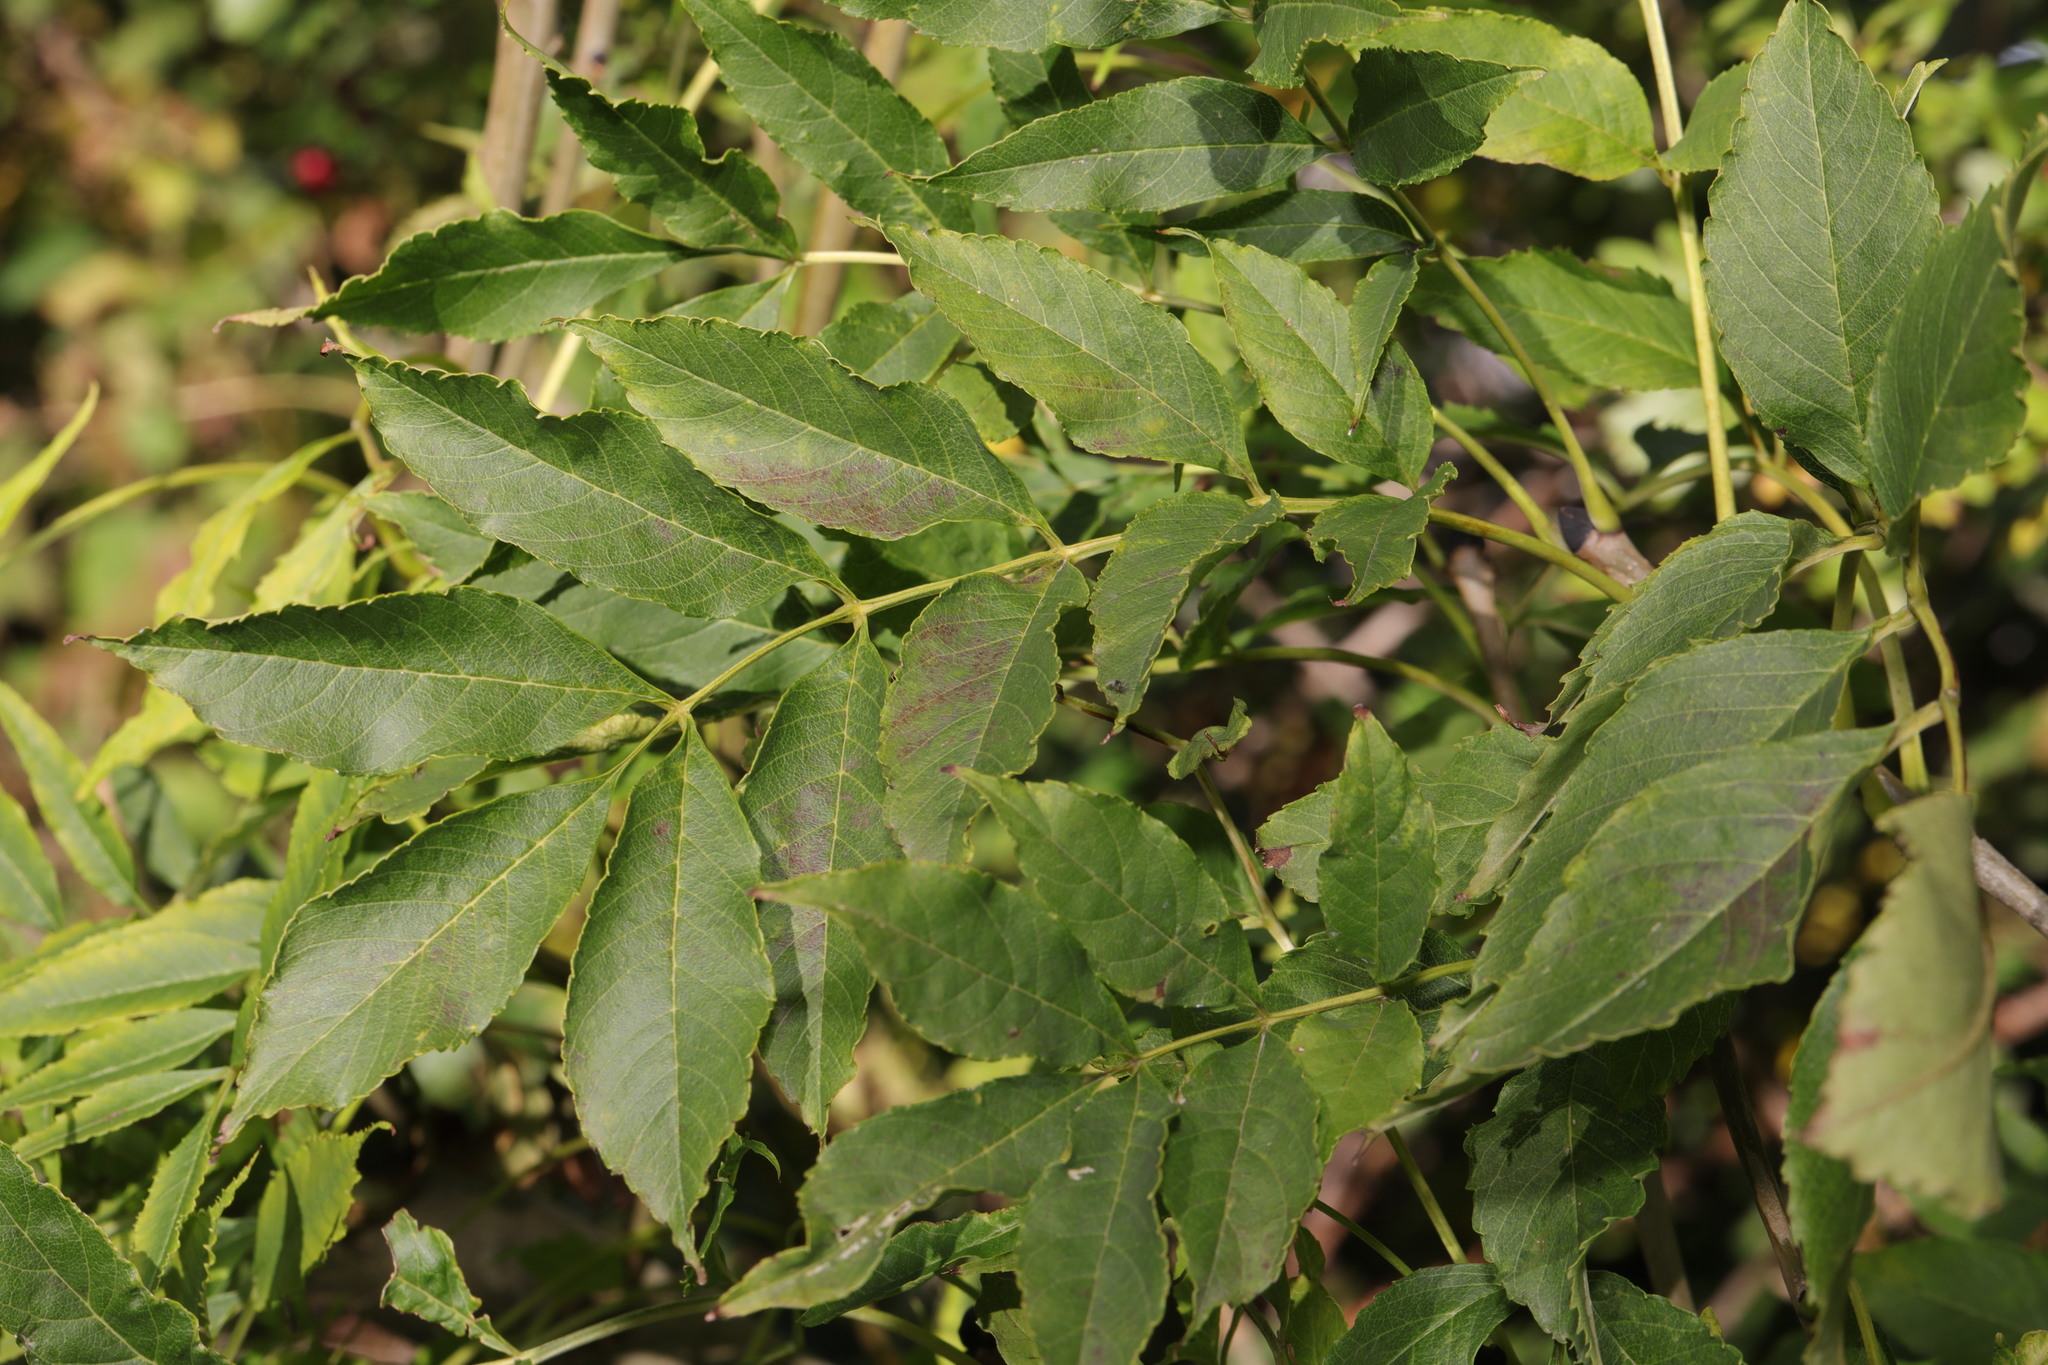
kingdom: Plantae
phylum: Tracheophyta
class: Magnoliopsida
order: Lamiales
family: Oleaceae
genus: Fraxinus
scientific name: Fraxinus excelsior
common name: European ash
